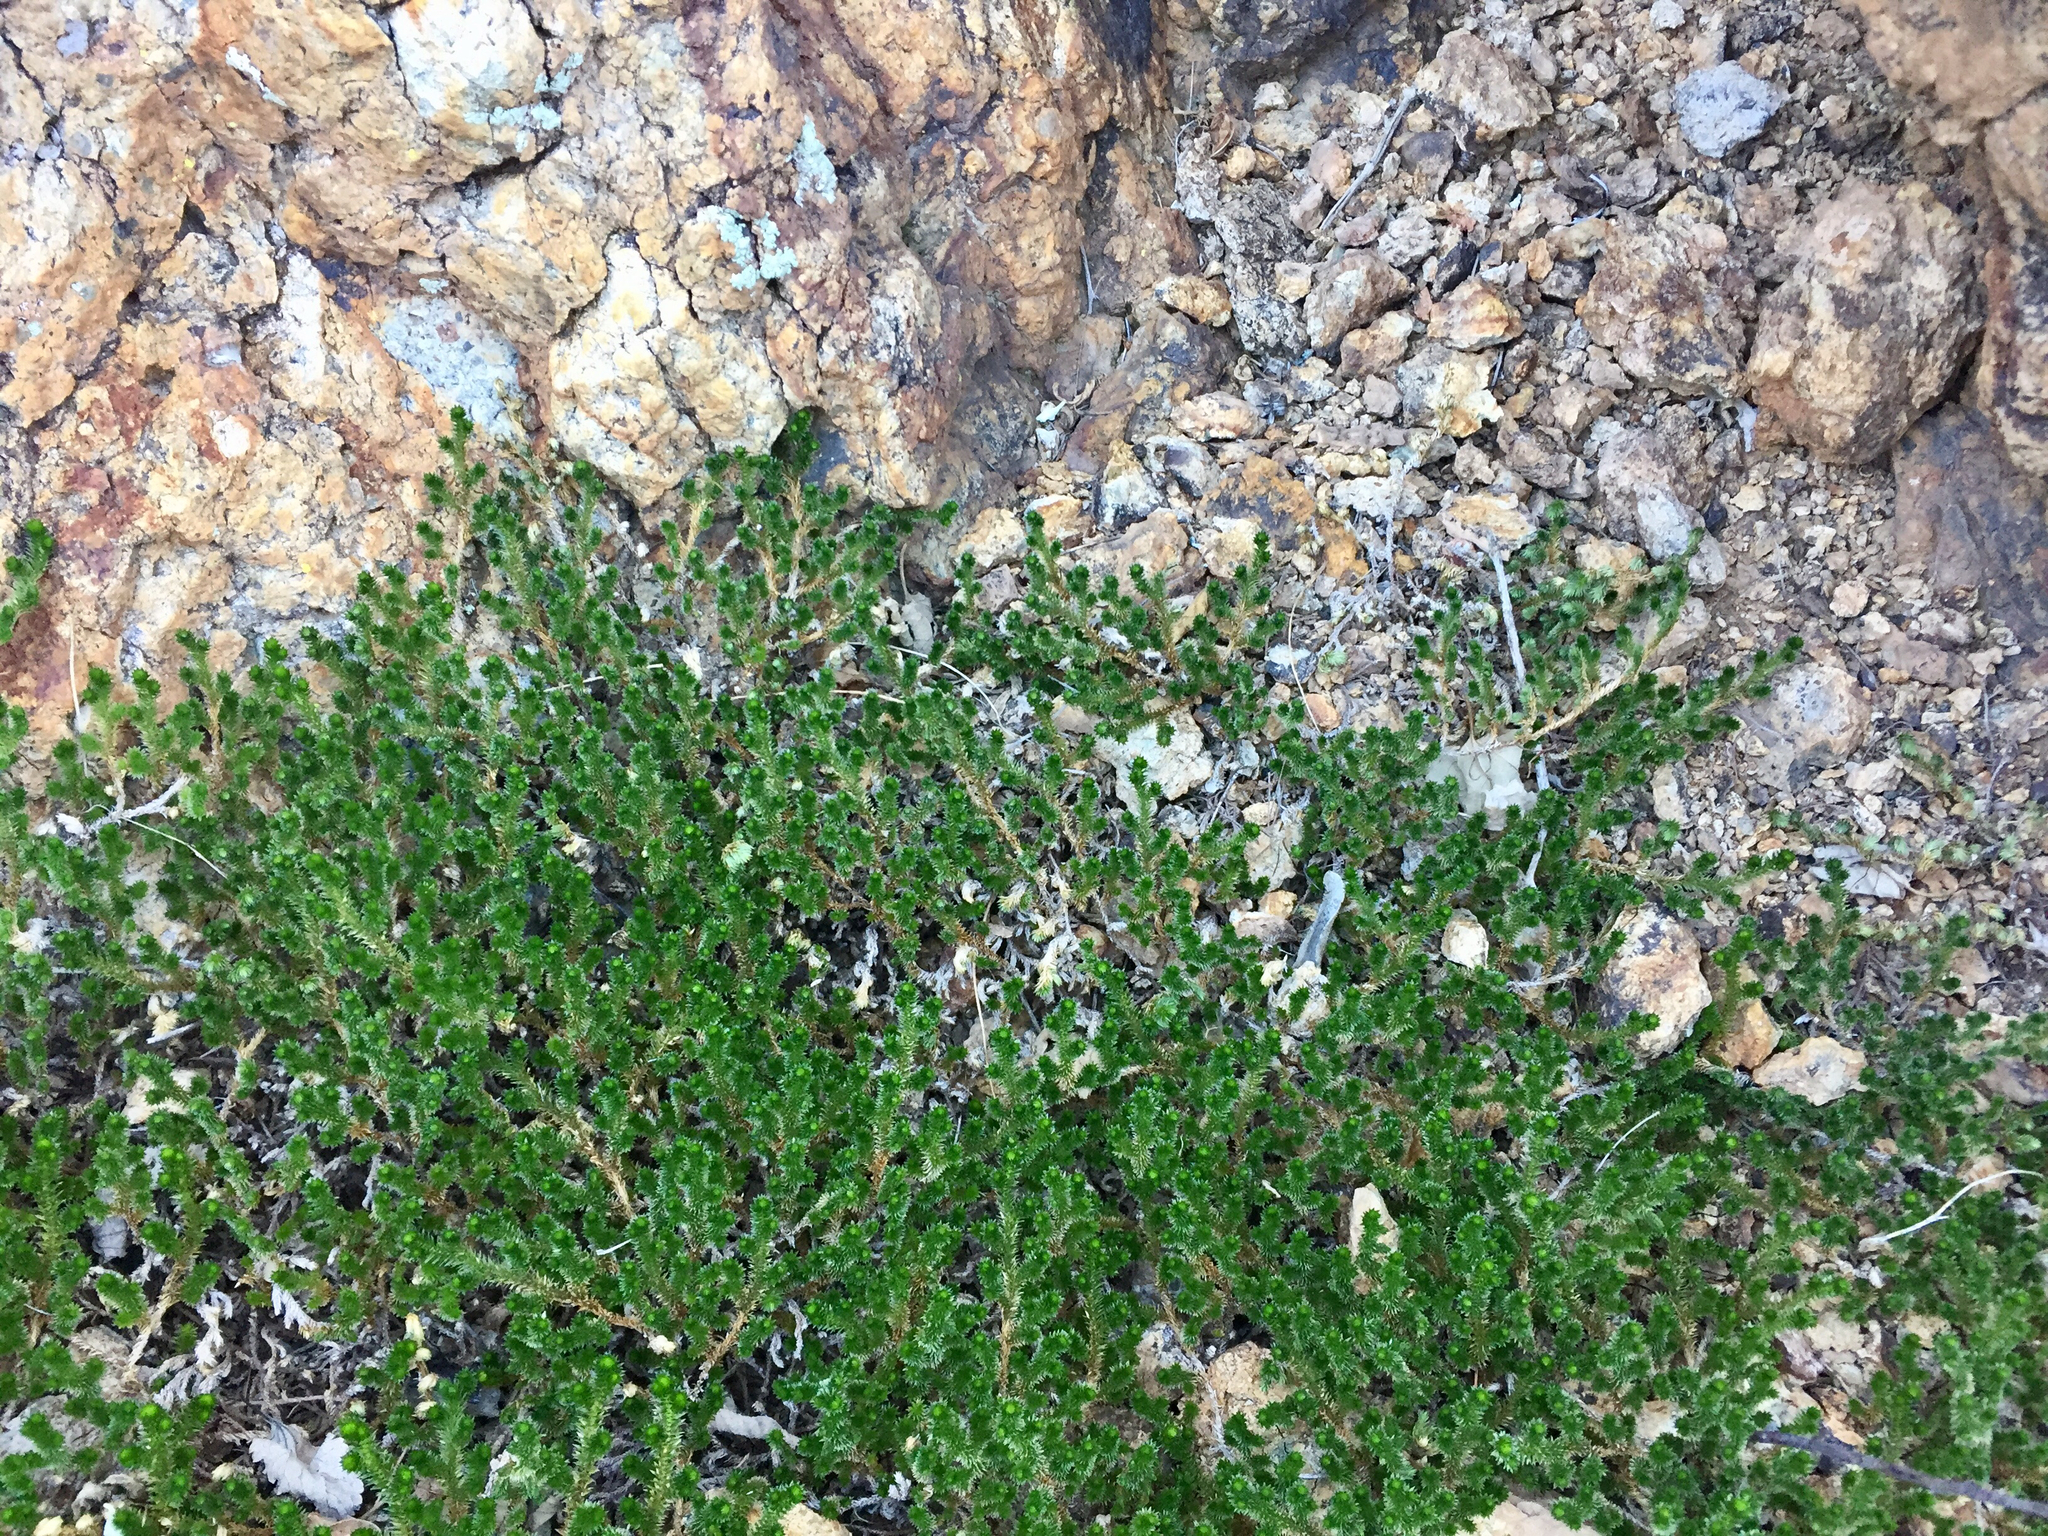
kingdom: Plantae
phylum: Tracheophyta
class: Lycopodiopsida
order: Selaginellales
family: Selaginellaceae
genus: Selaginella
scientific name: Selaginella arizonica
